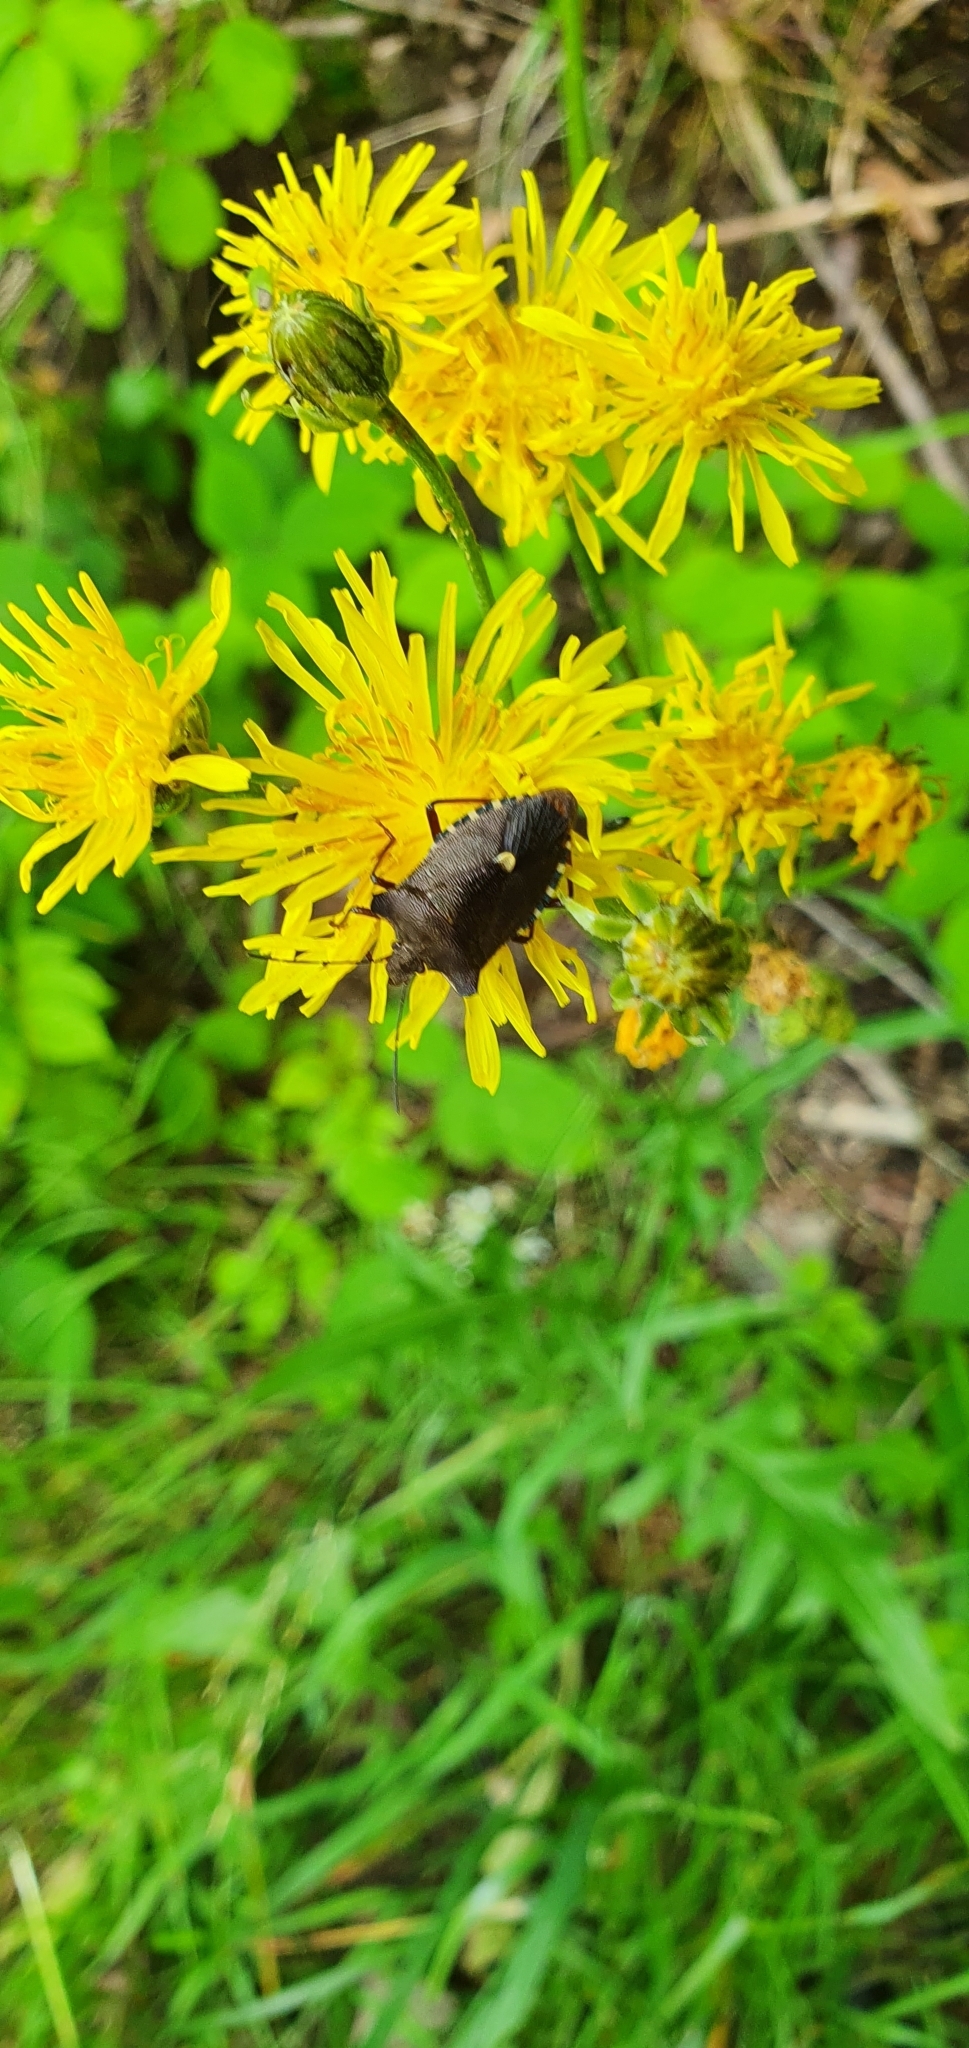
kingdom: Animalia
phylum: Arthropoda
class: Insecta
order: Hemiptera
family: Pentatomidae
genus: Pentatoma
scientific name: Pentatoma rufipes
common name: Forest bug
